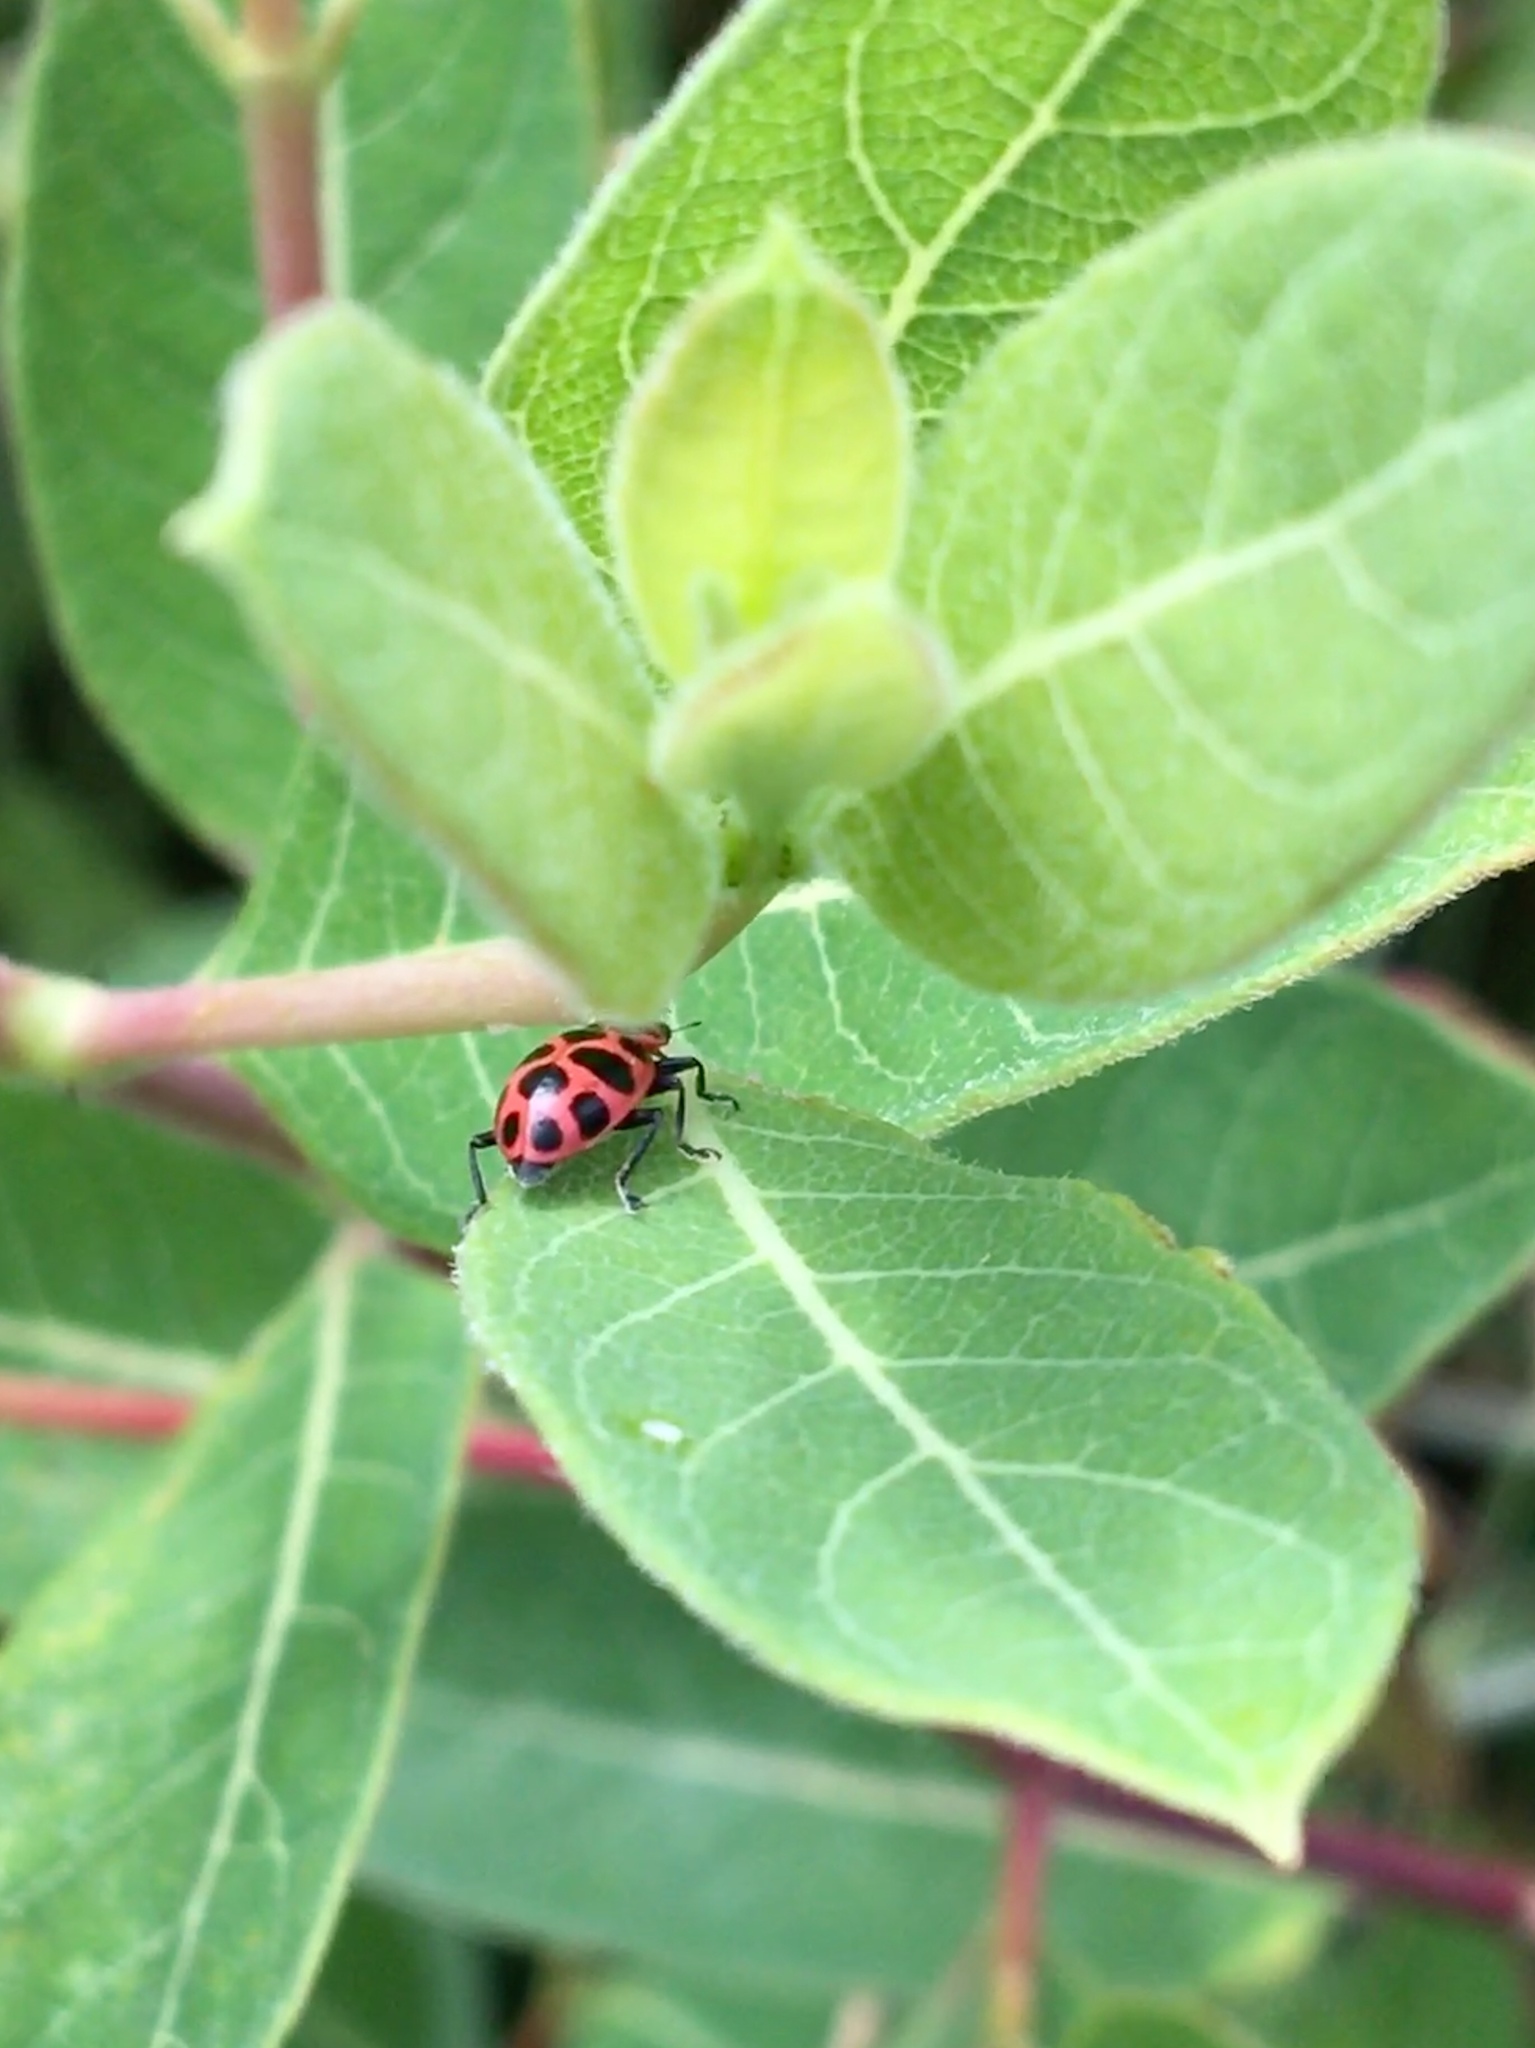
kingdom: Animalia
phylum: Arthropoda
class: Insecta
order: Coleoptera
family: Coccinellidae
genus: Coleomegilla
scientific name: Coleomegilla maculata
